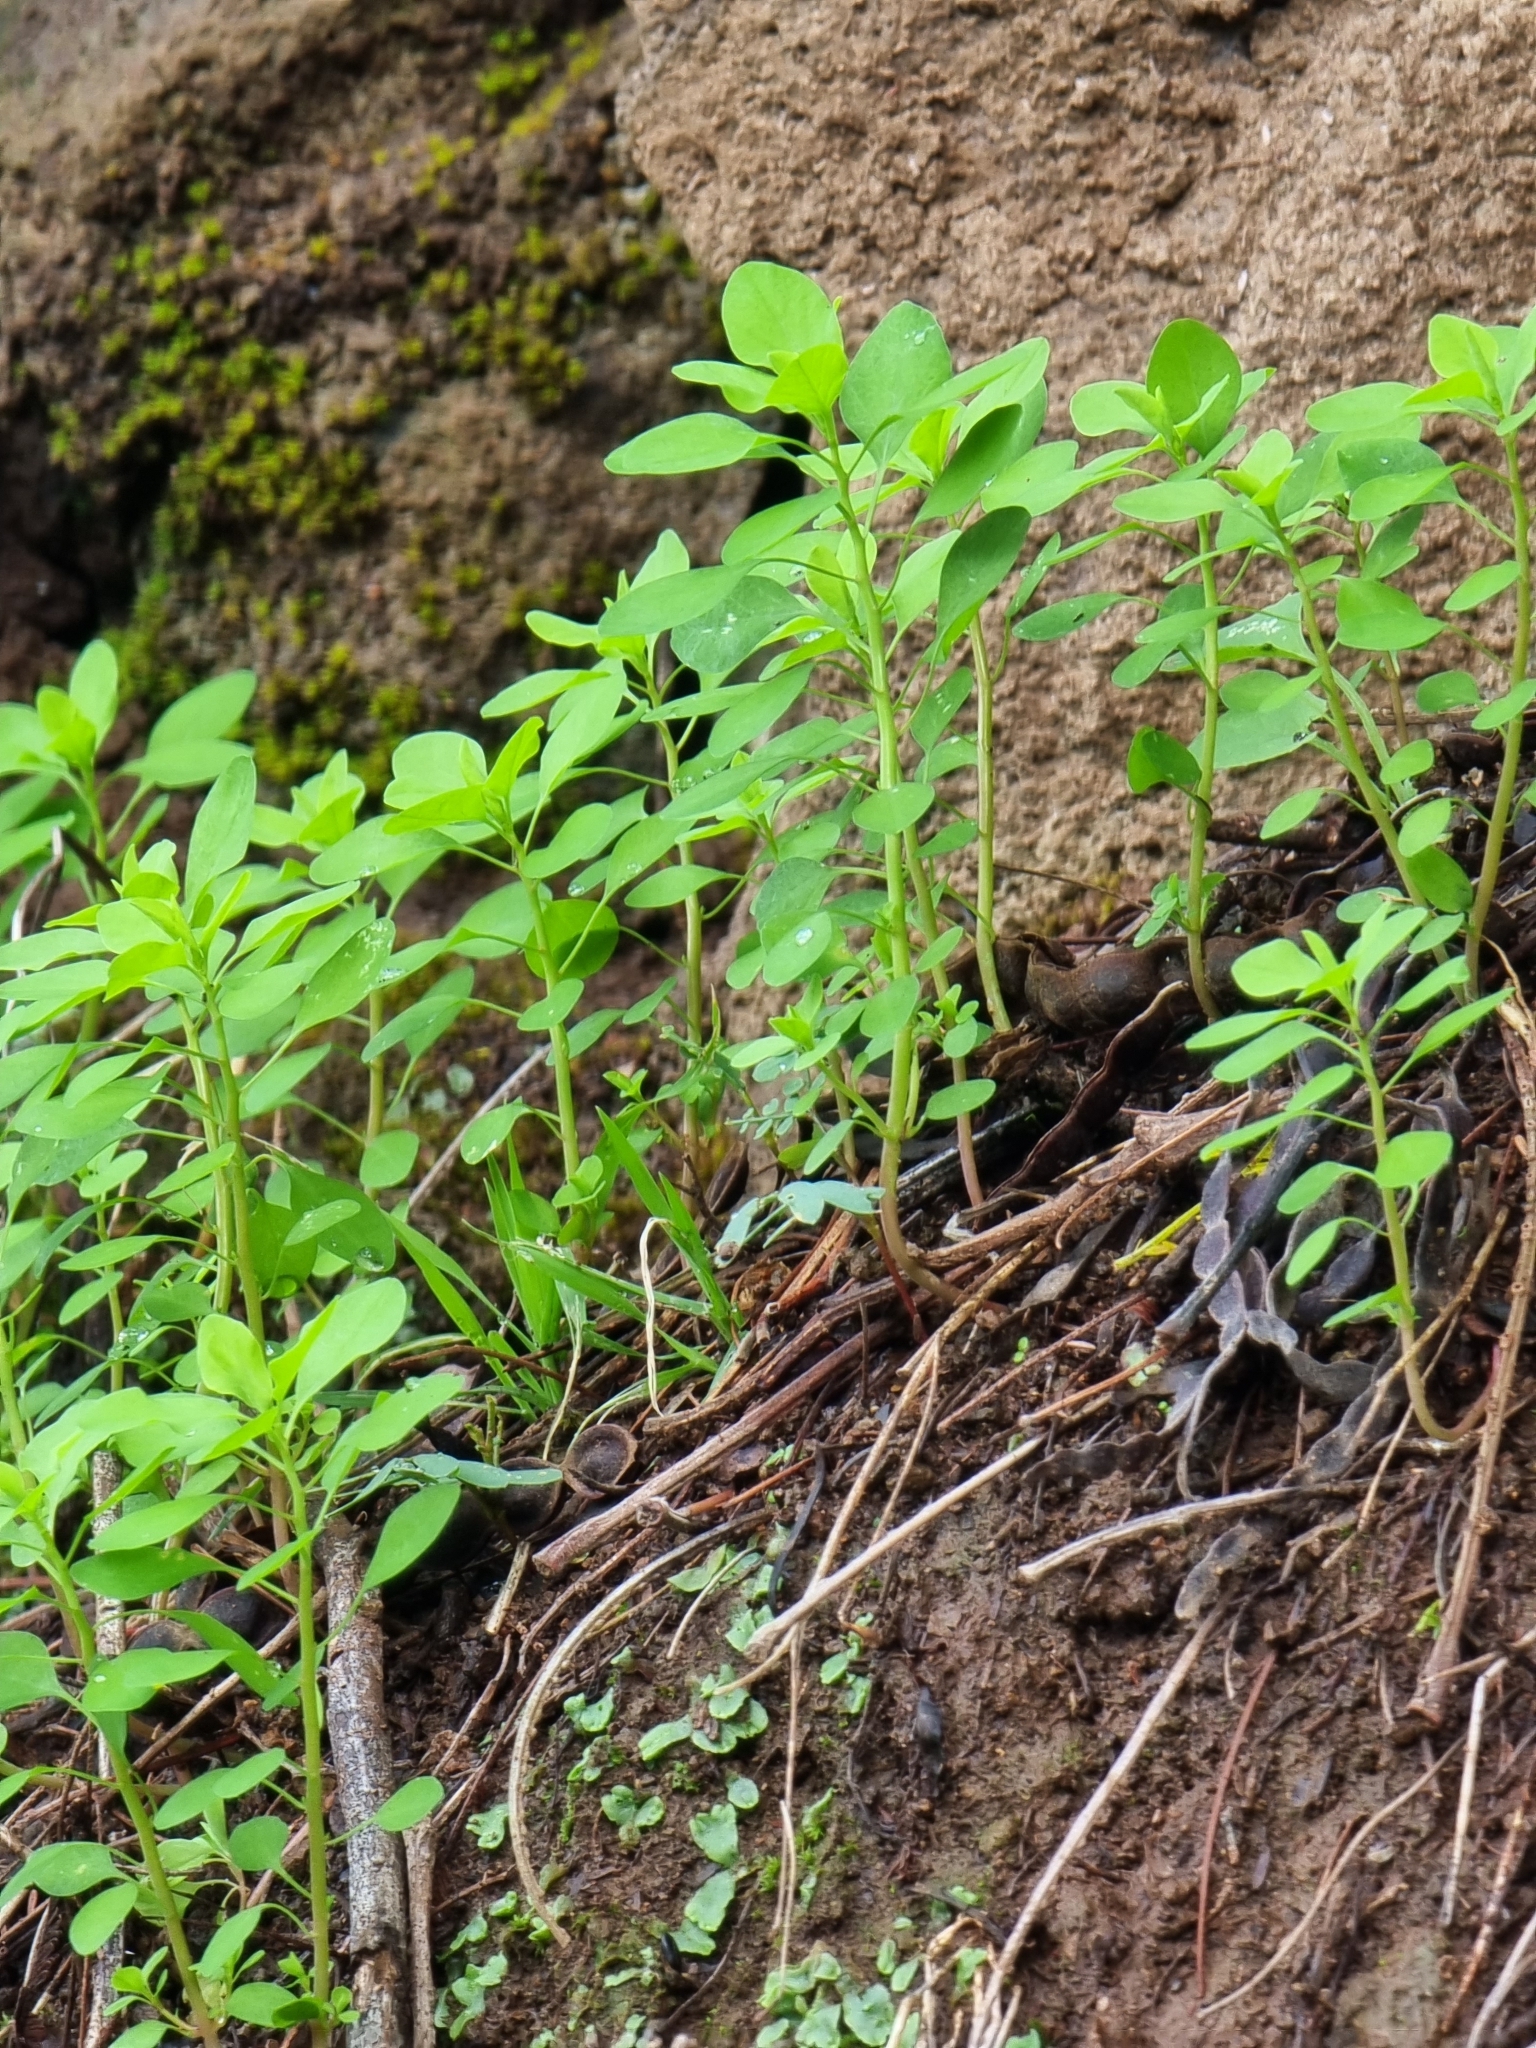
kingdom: Plantae
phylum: Tracheophyta
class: Magnoliopsida
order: Malpighiales
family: Euphorbiaceae
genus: Euphorbia
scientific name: Euphorbia peplus
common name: Petty spurge
